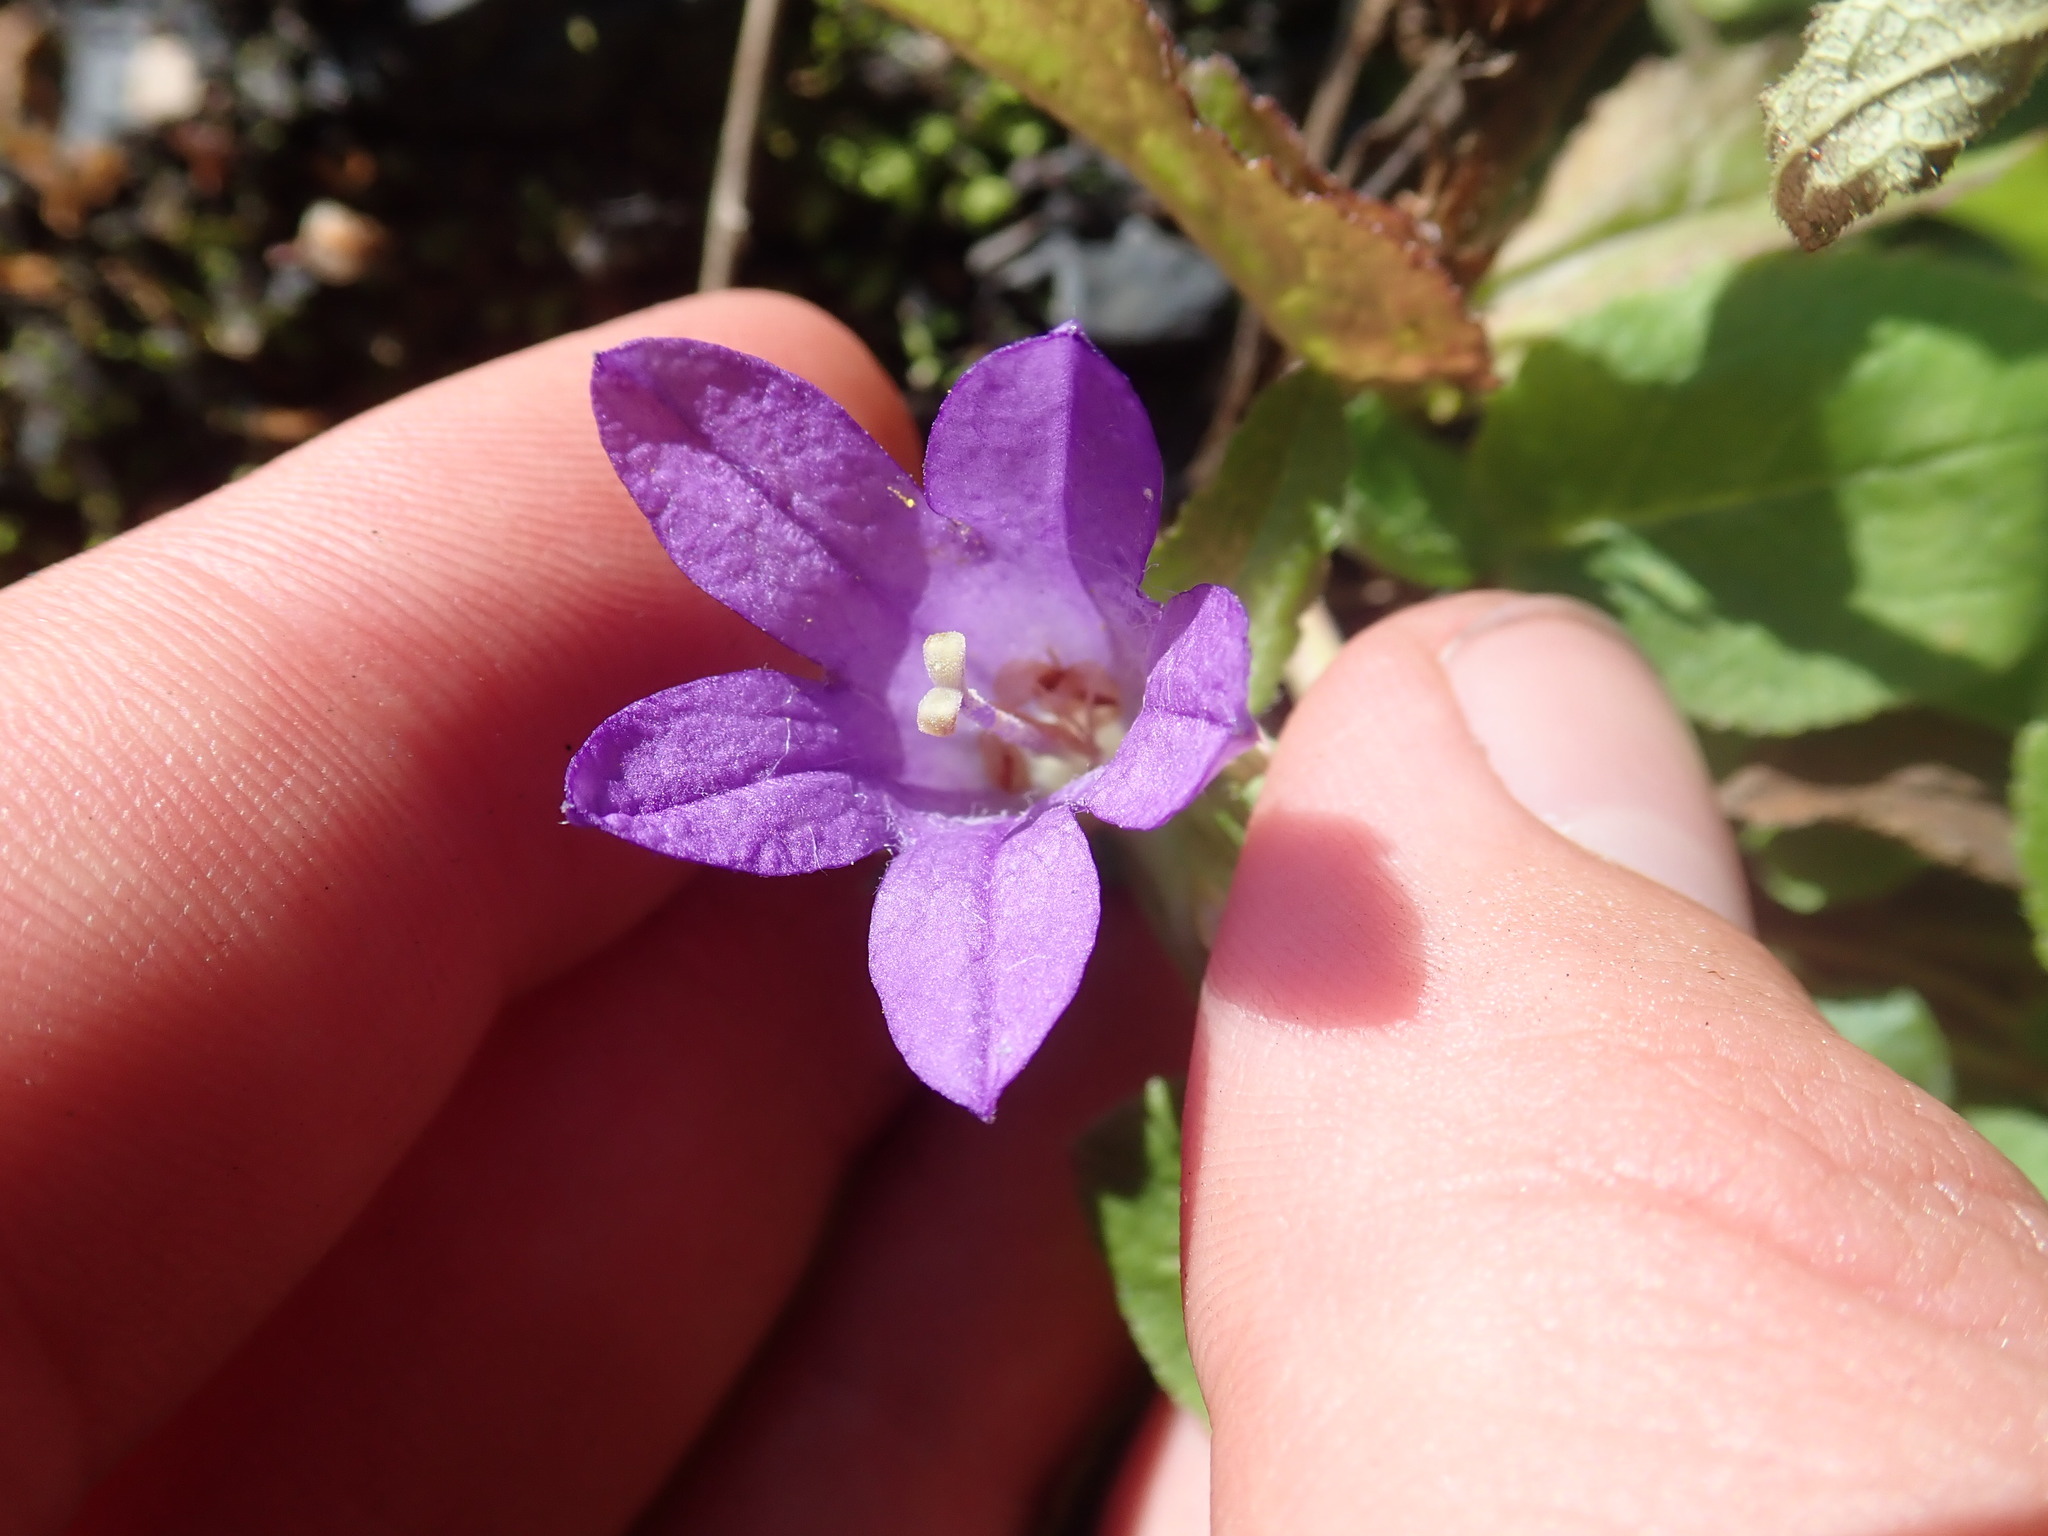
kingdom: Plantae
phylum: Tracheophyta
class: Magnoliopsida
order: Asterales
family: Campanulaceae
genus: Campanula
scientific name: Campanula
